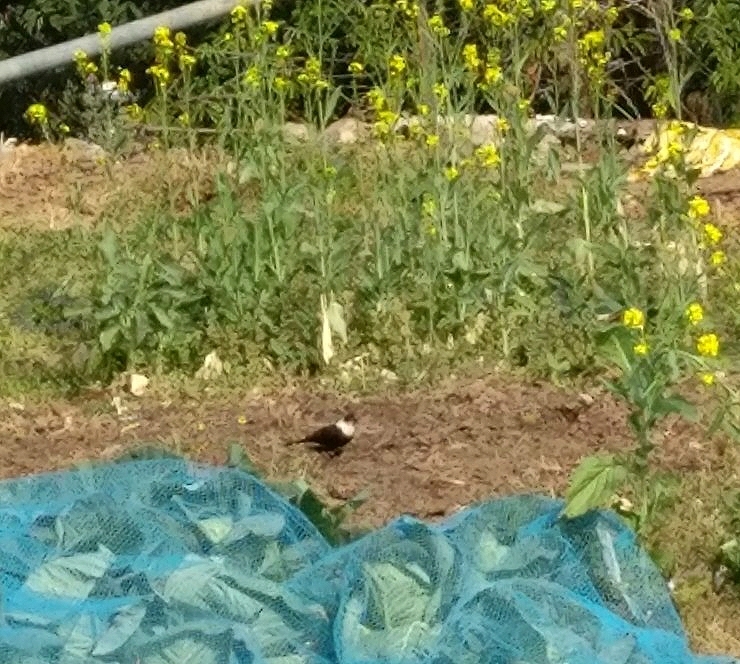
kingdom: Animalia
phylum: Chordata
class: Aves
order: Passeriformes
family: Turdidae
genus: Turdus
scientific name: Turdus albocinctus
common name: White-collared blackbird
